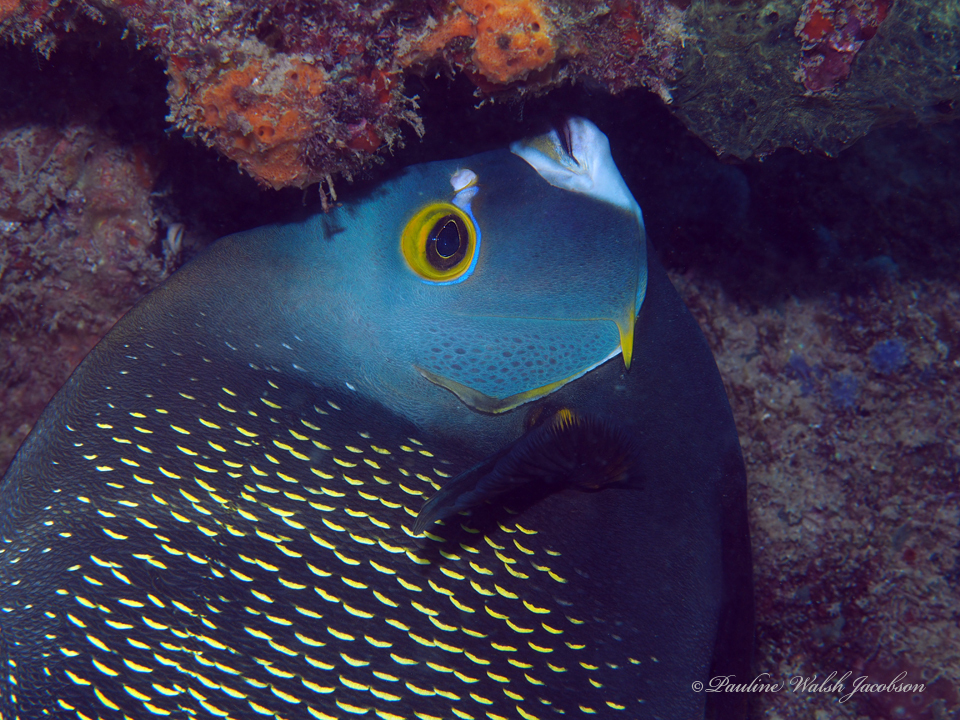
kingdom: Animalia
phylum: Chordata
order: Perciformes
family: Pomacanthidae
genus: Pomacanthus
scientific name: Pomacanthus paru
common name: French angelfish
